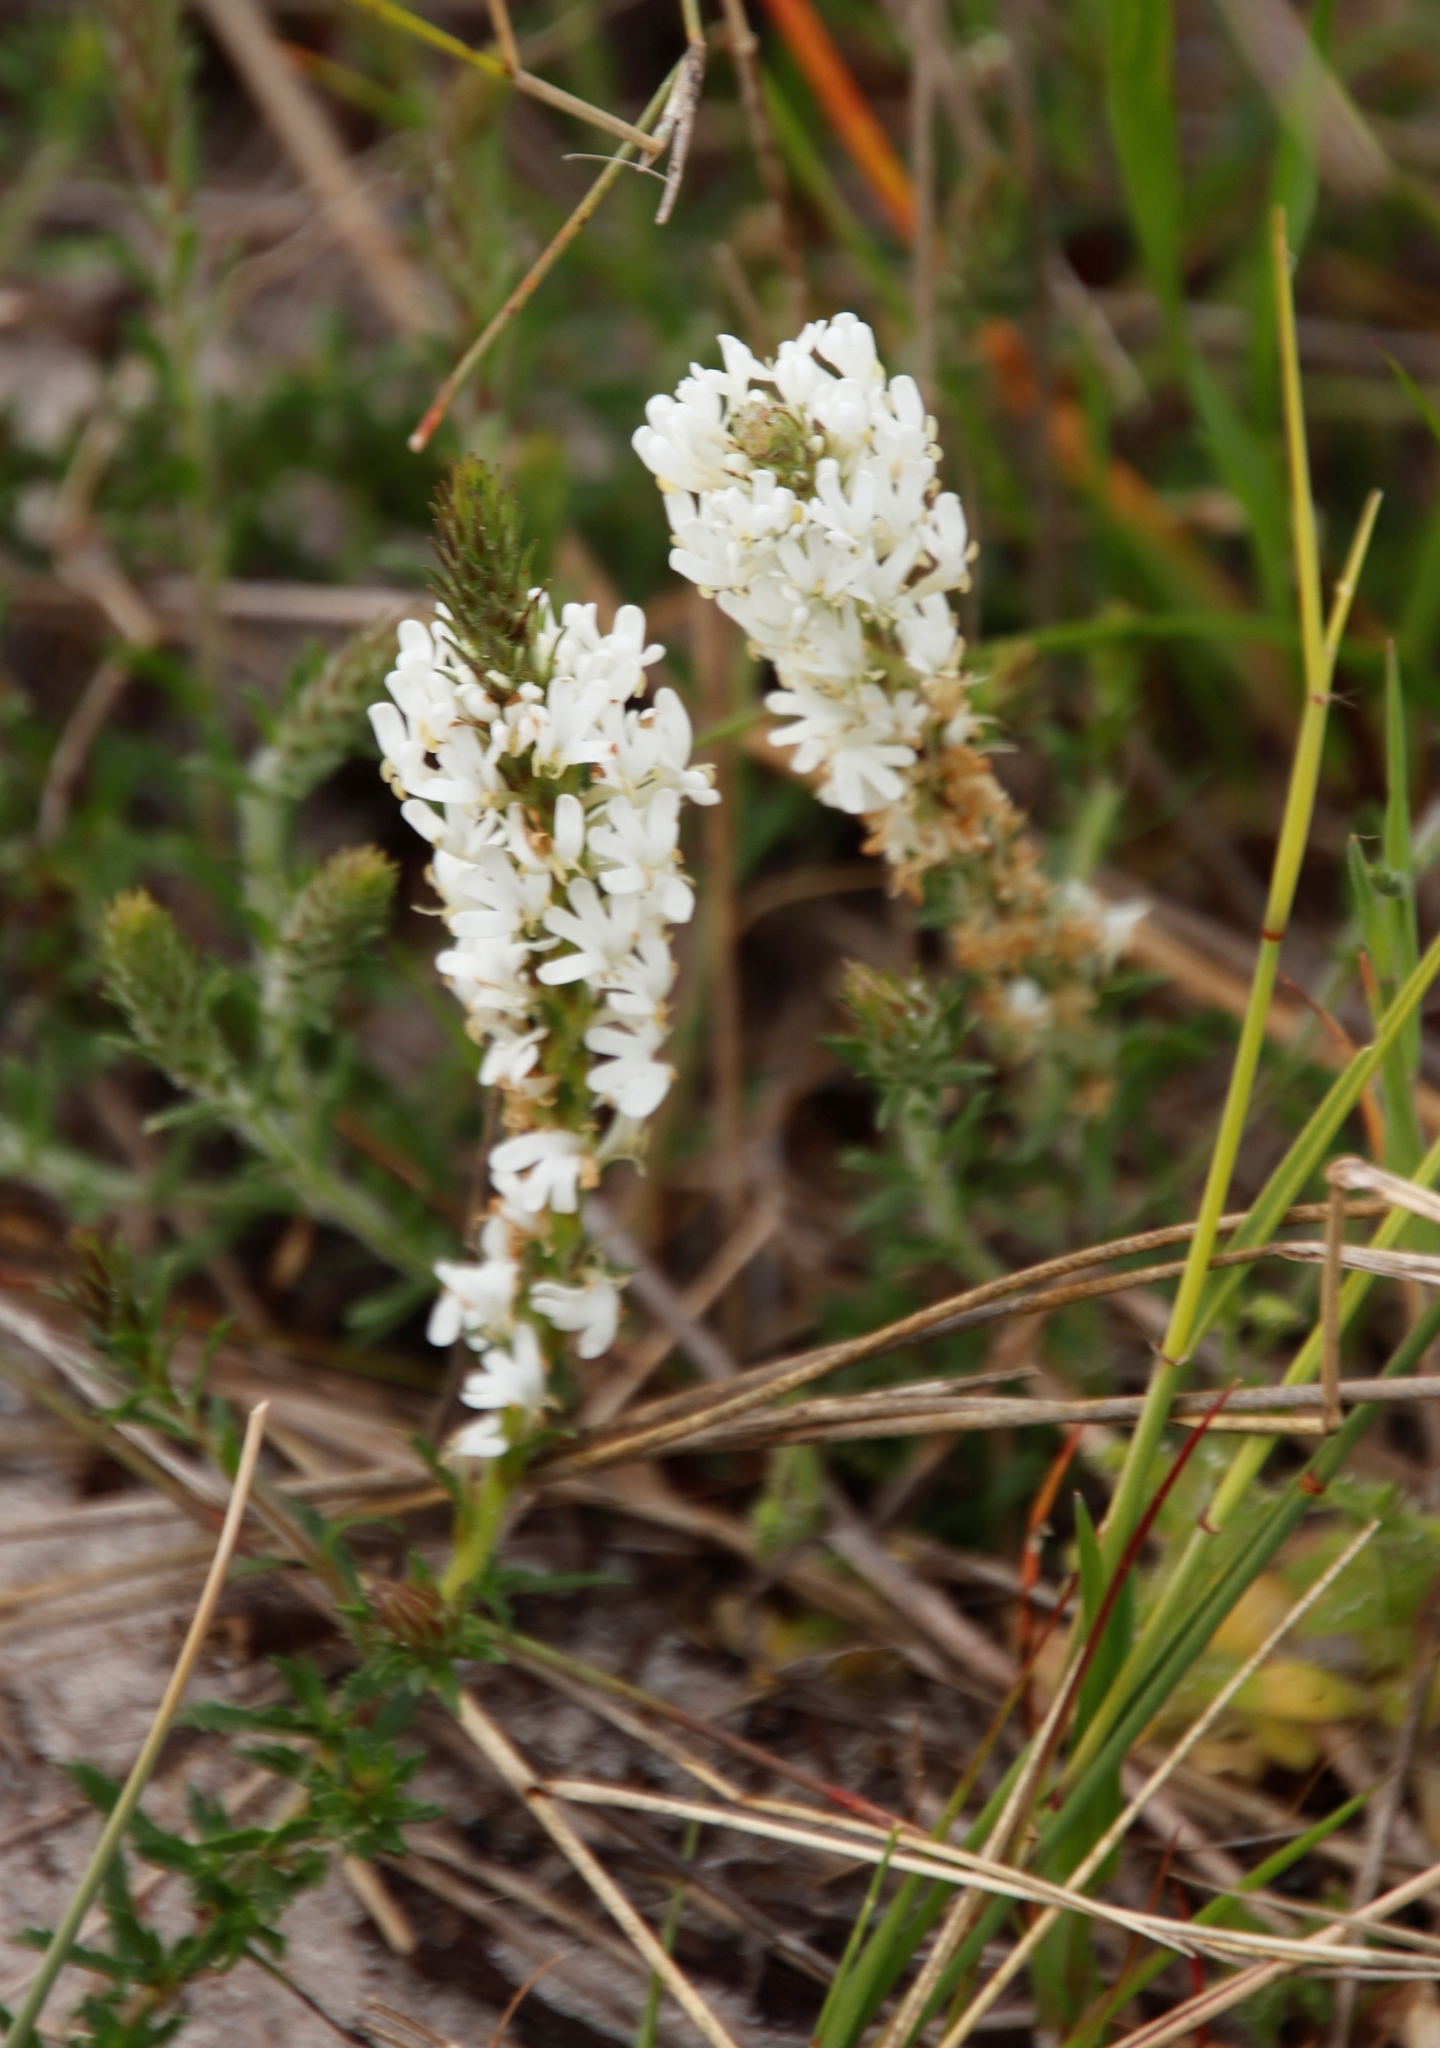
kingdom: Plantae
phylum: Tracheophyta
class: Magnoliopsida
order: Lamiales
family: Scrophulariaceae
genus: Dischisma
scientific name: Dischisma ciliatum
